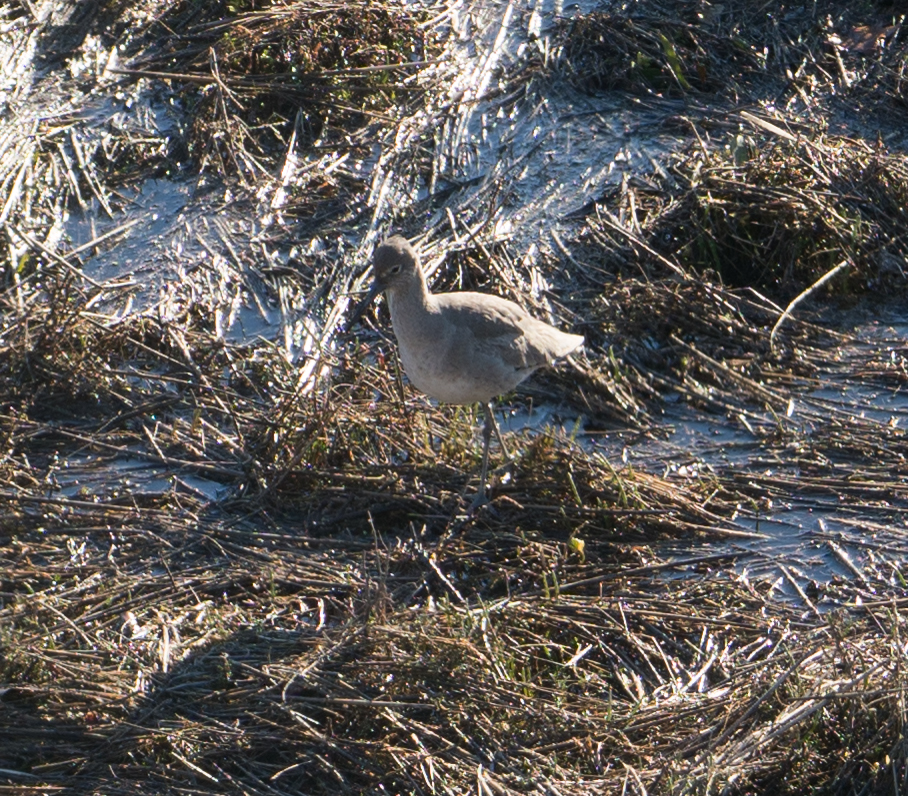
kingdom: Animalia
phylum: Chordata
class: Aves
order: Charadriiformes
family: Scolopacidae
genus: Tringa
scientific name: Tringa semipalmata
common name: Willet
